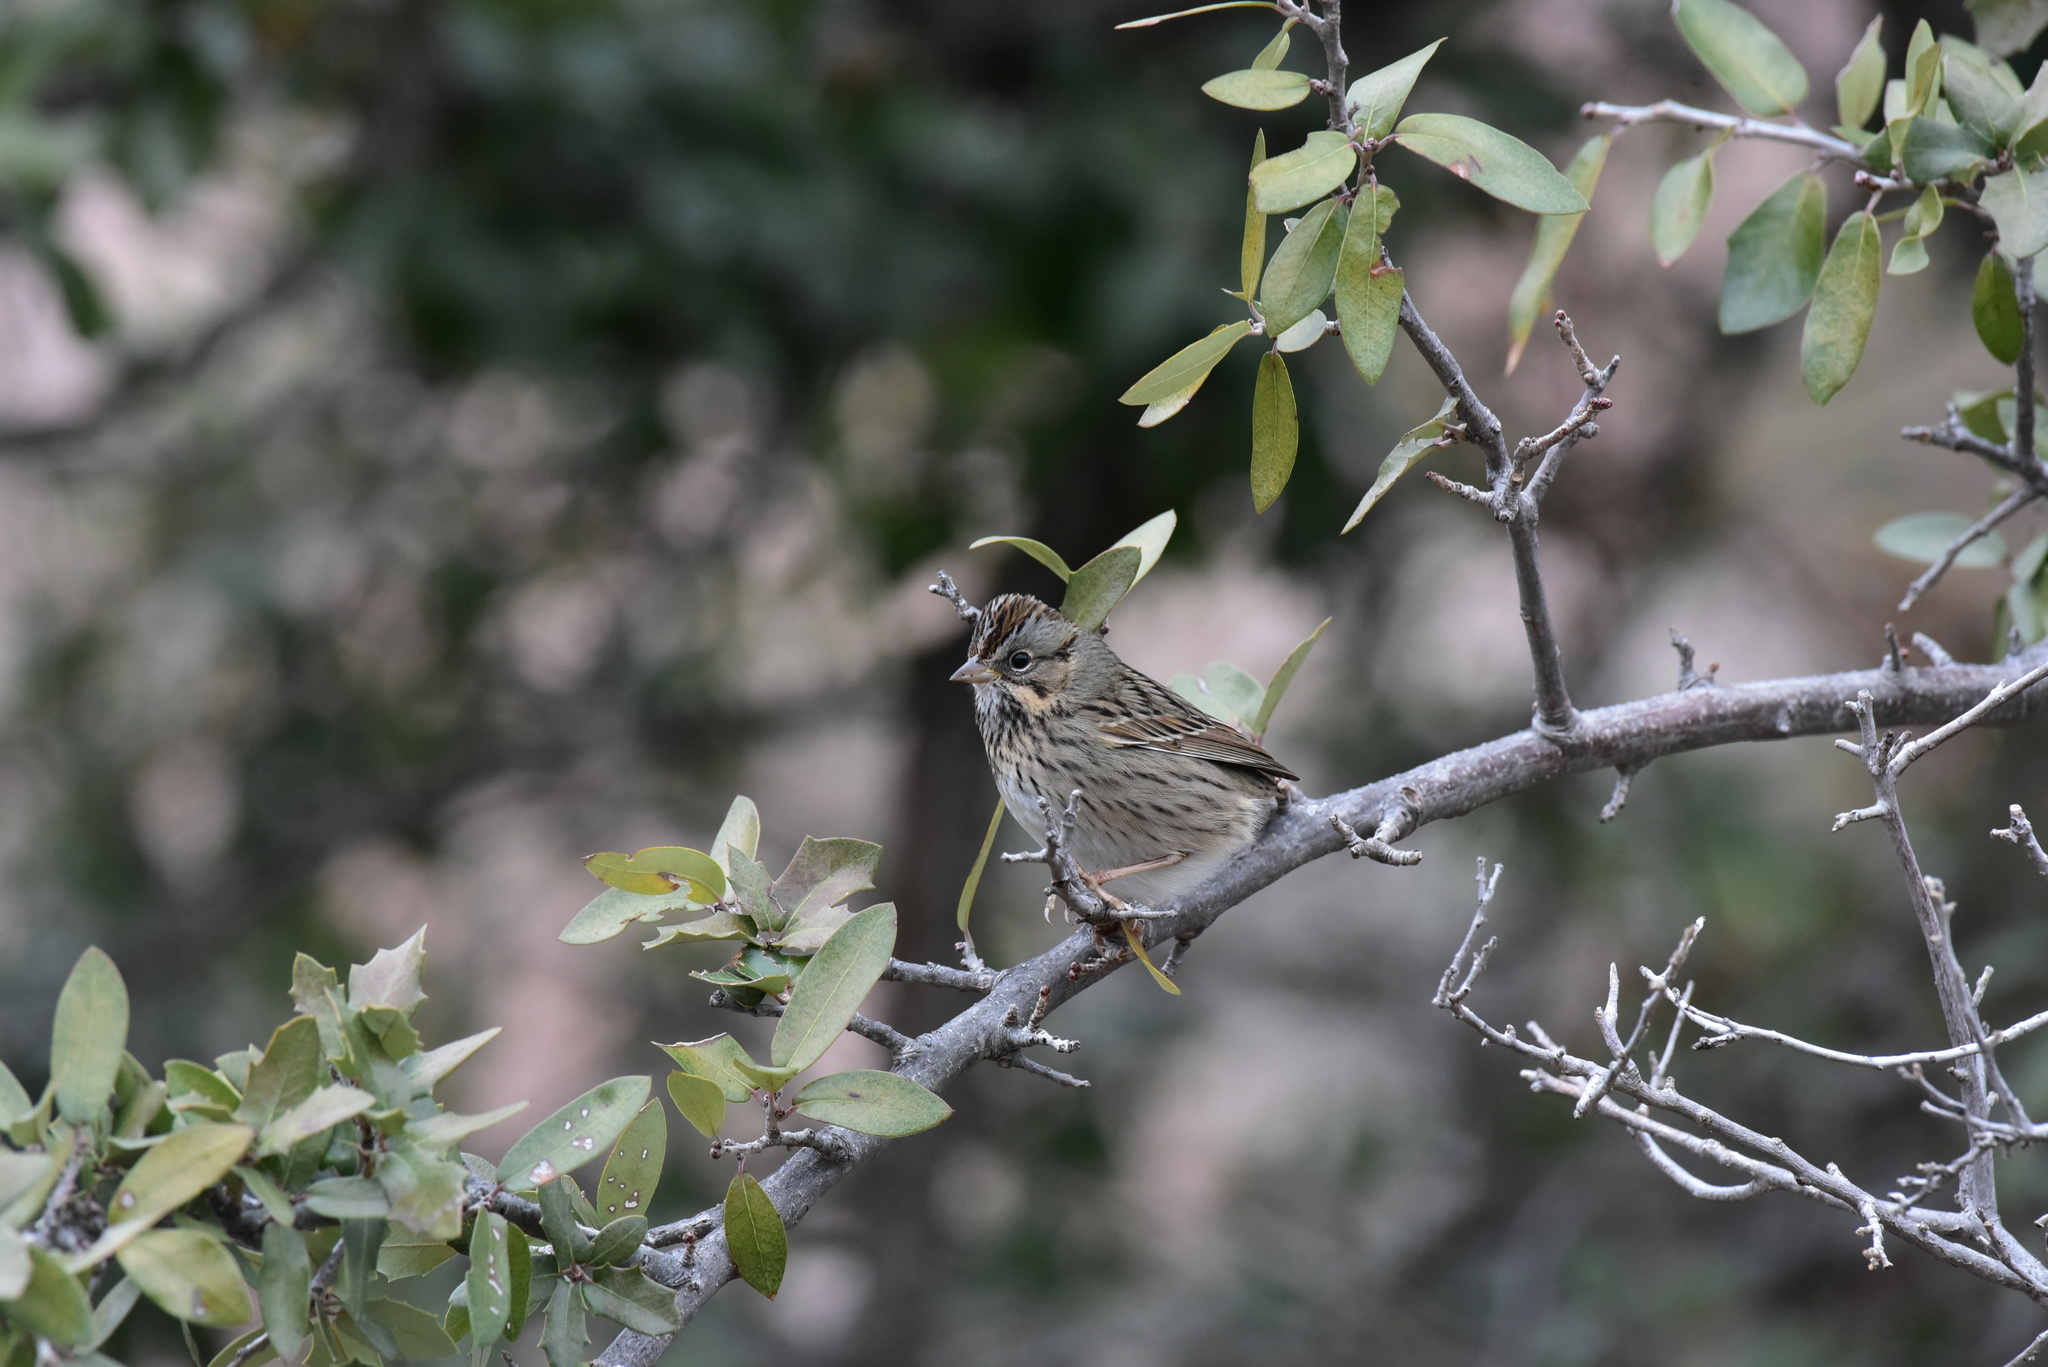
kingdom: Animalia
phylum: Chordata
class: Aves
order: Passeriformes
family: Passerellidae
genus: Melospiza
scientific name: Melospiza lincolnii
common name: Lincoln's sparrow
